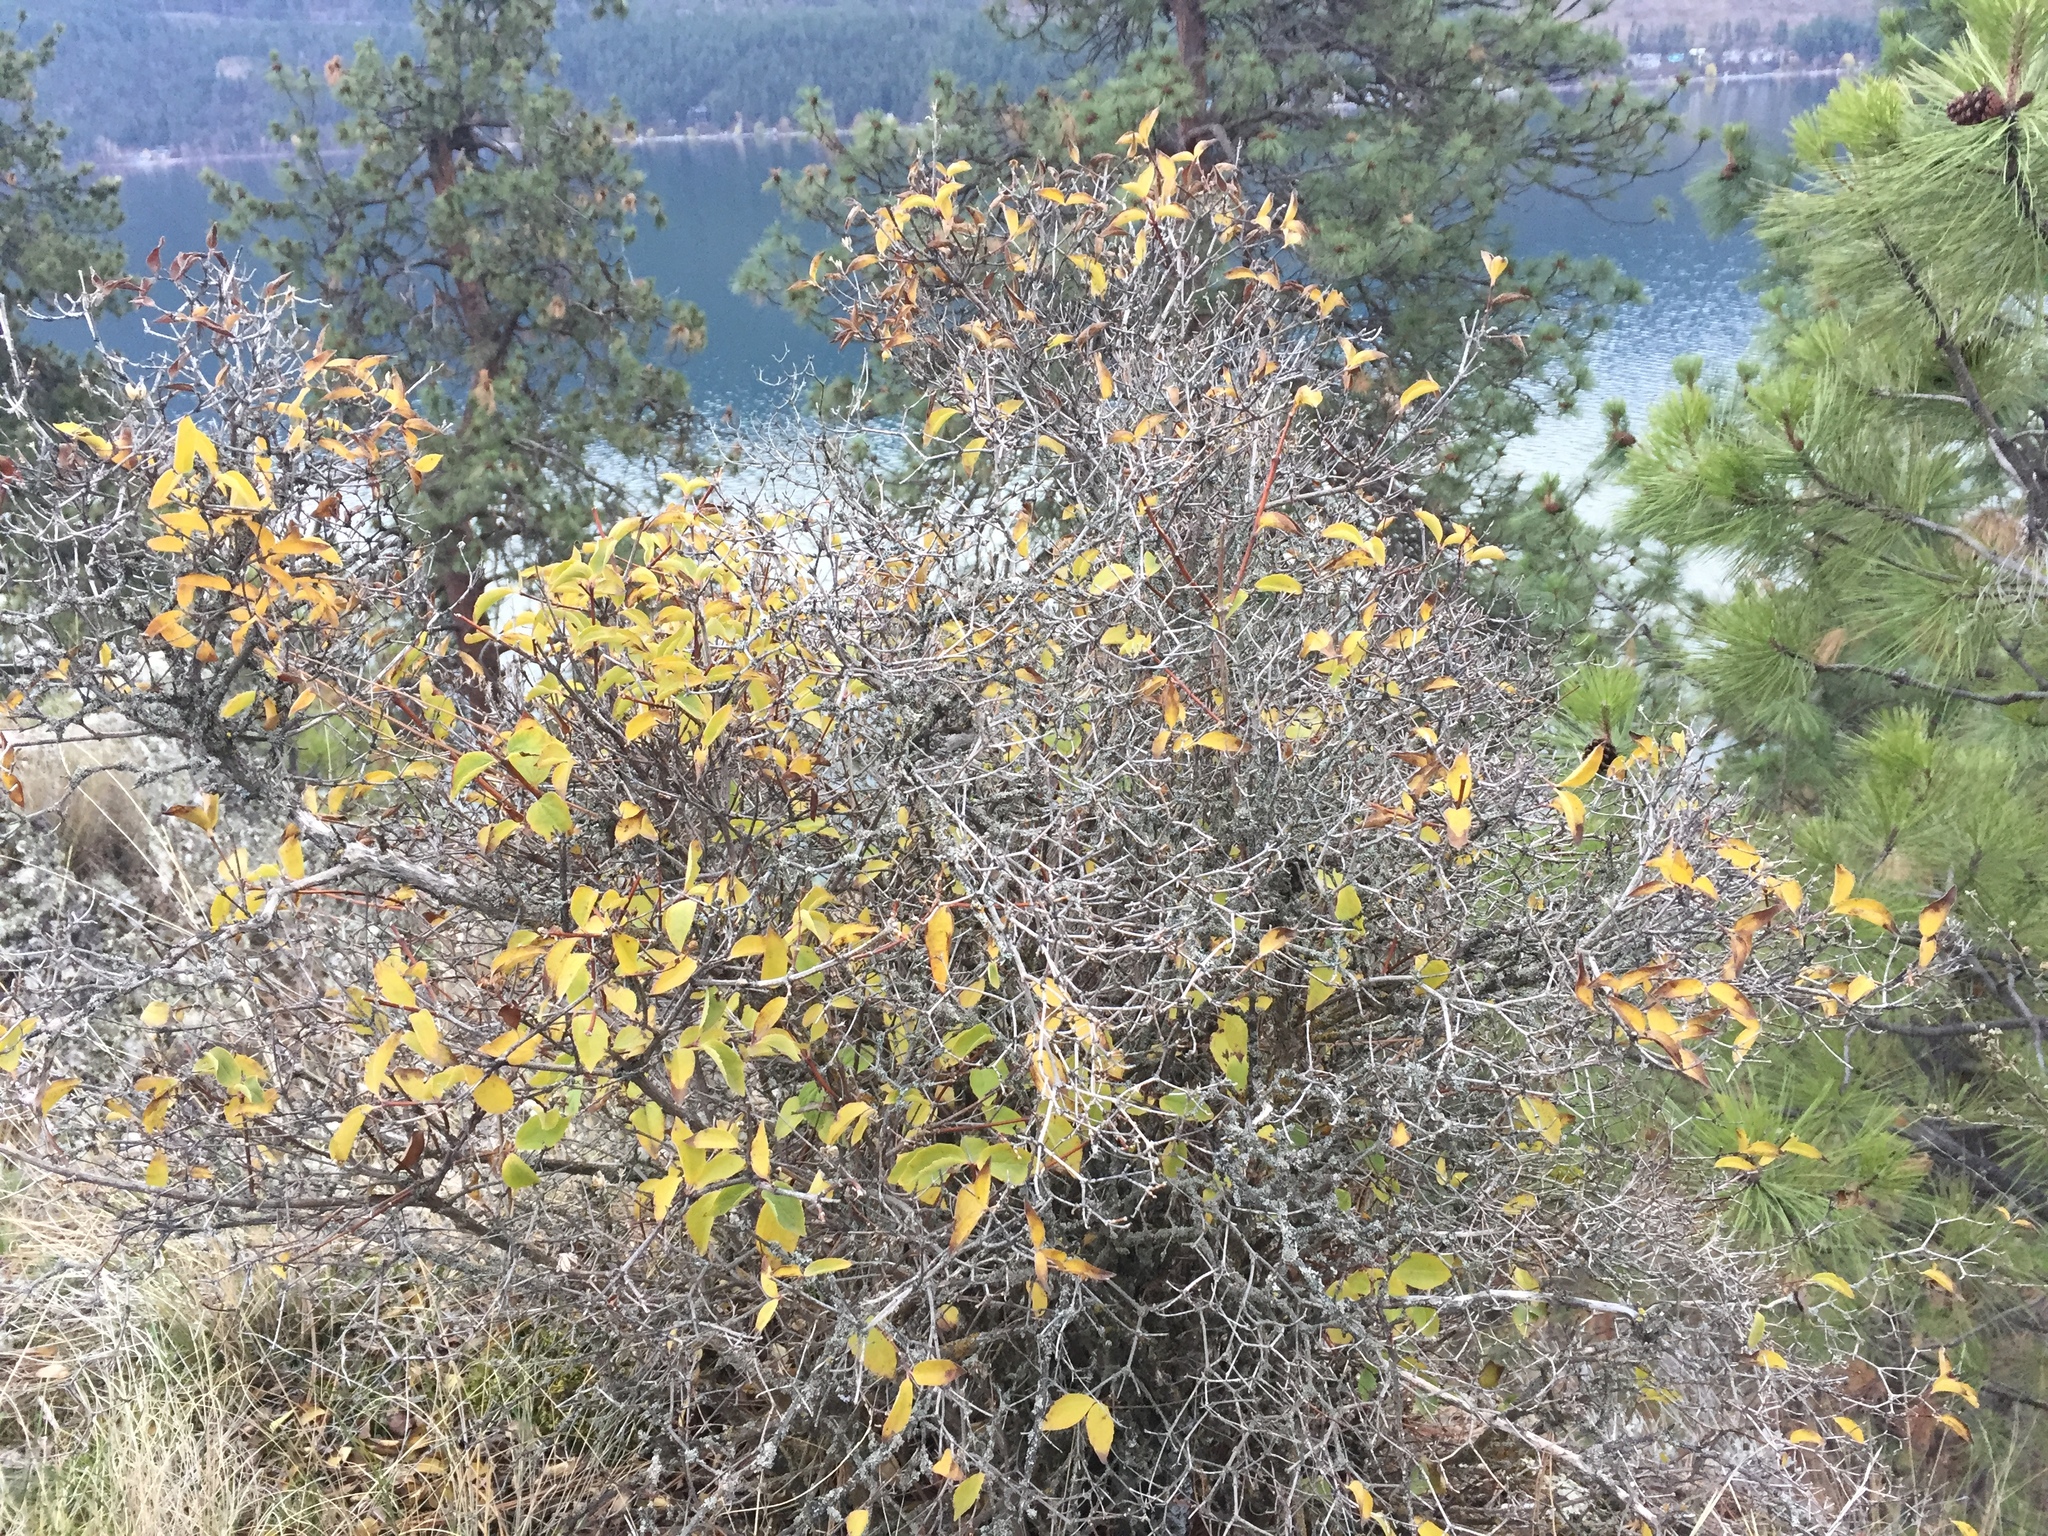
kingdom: Plantae
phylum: Tracheophyta
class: Magnoliopsida
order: Cornales
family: Hydrangeaceae
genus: Philadelphus
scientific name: Philadelphus lewisii
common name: Lewis's mock orange
